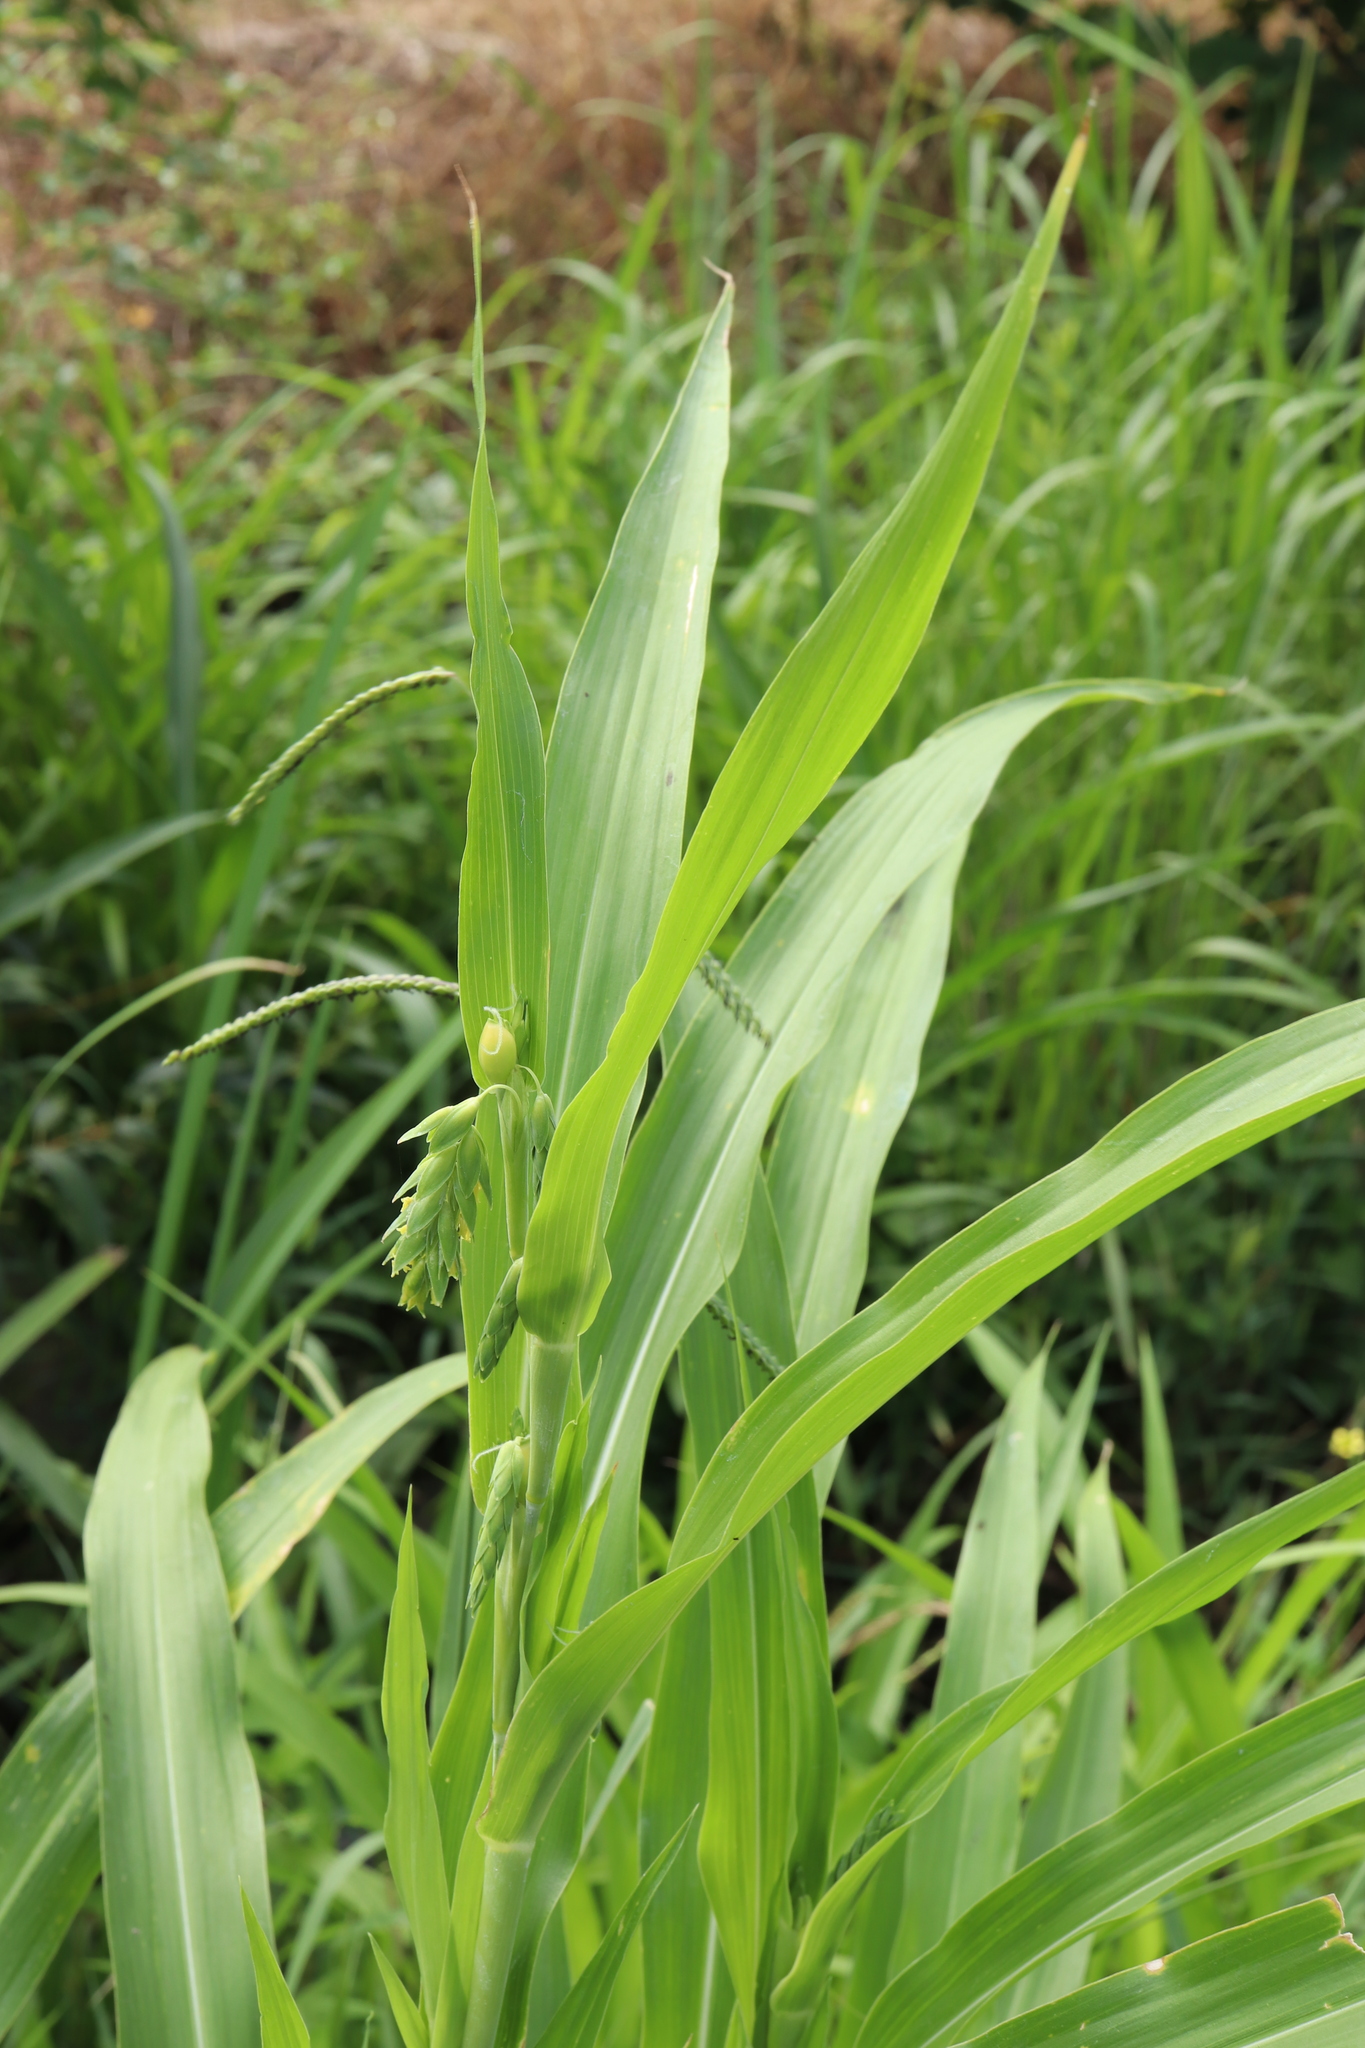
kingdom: Plantae
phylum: Tracheophyta
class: Liliopsida
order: Poales
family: Poaceae
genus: Coix
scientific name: Coix lacryma-jobi
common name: Job's tears
